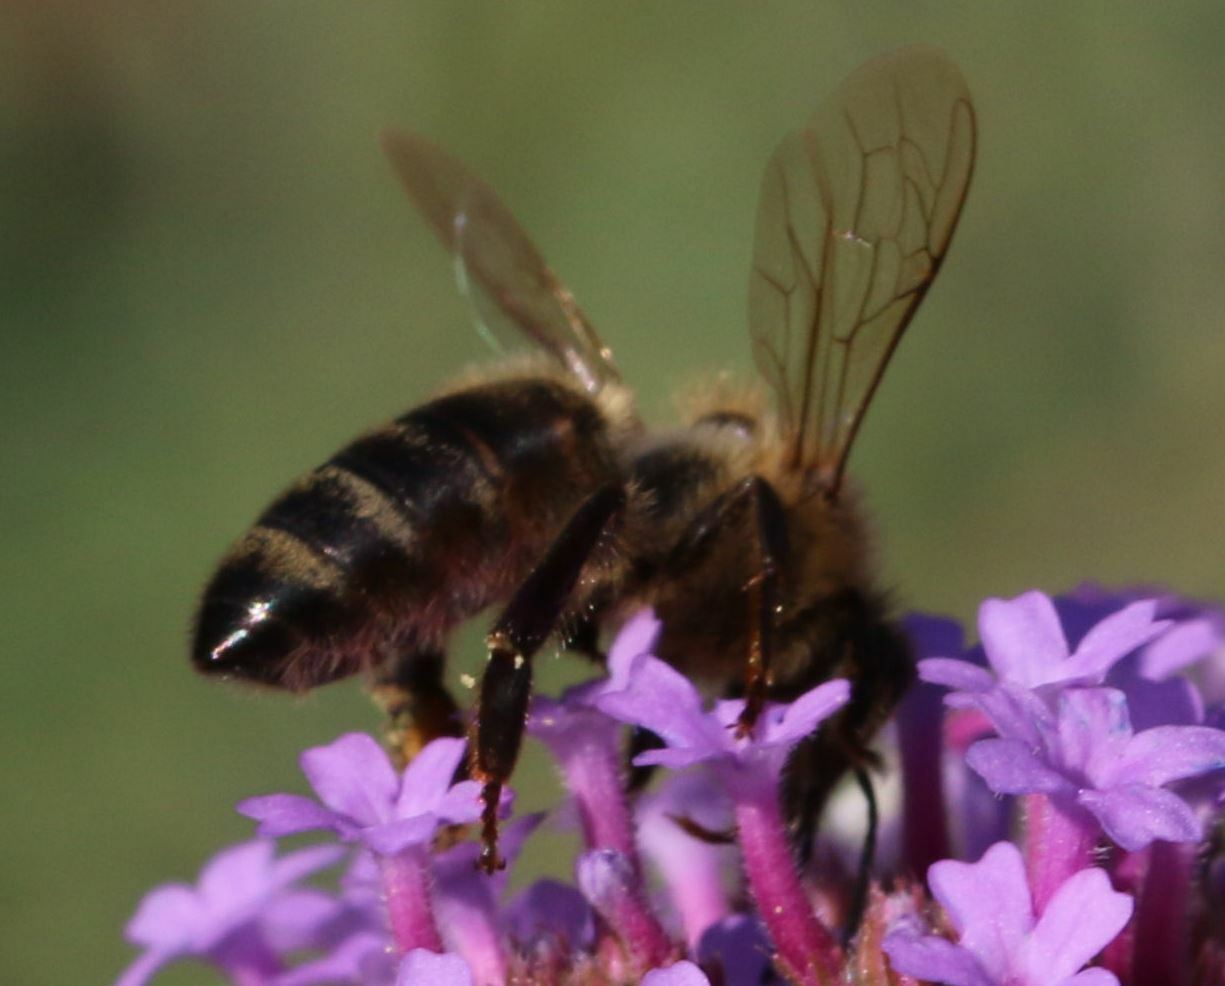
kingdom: Animalia
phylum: Arthropoda
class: Insecta
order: Hymenoptera
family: Apidae
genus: Apis
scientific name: Apis mellifera
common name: Honey bee
